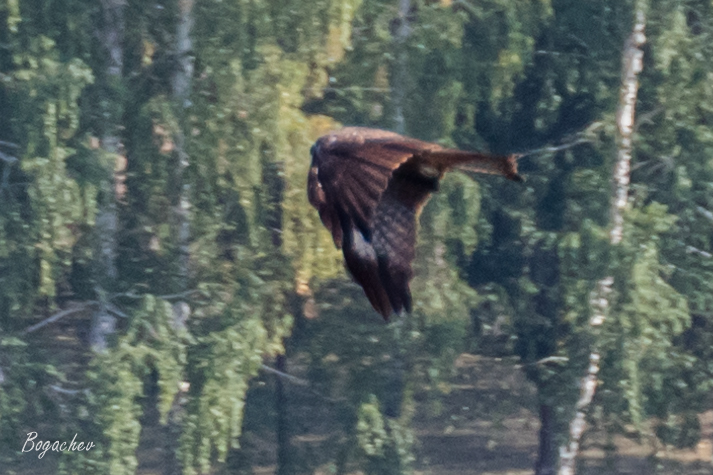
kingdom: Animalia
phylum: Chordata
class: Aves
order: Accipitriformes
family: Accipitridae
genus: Milvus
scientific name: Milvus migrans
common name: Black kite
